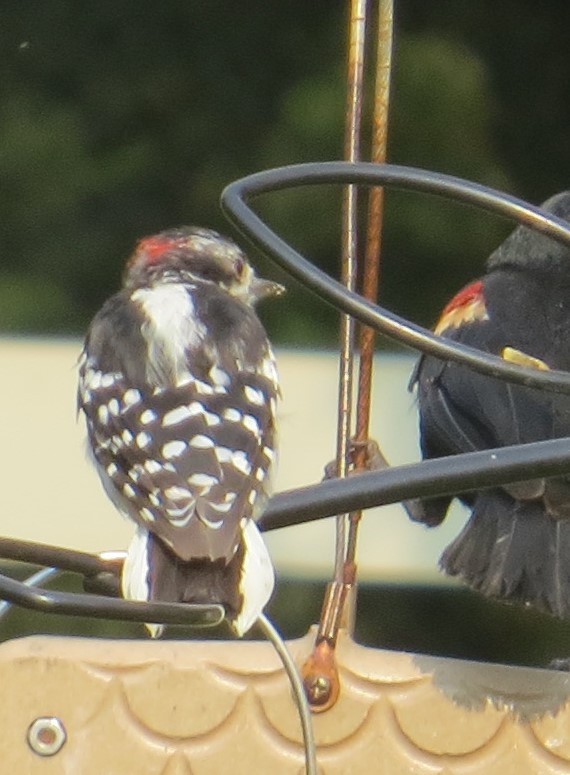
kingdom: Animalia
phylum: Chordata
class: Aves
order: Piciformes
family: Picidae
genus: Dryobates
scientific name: Dryobates pubescens
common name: Downy woodpecker
